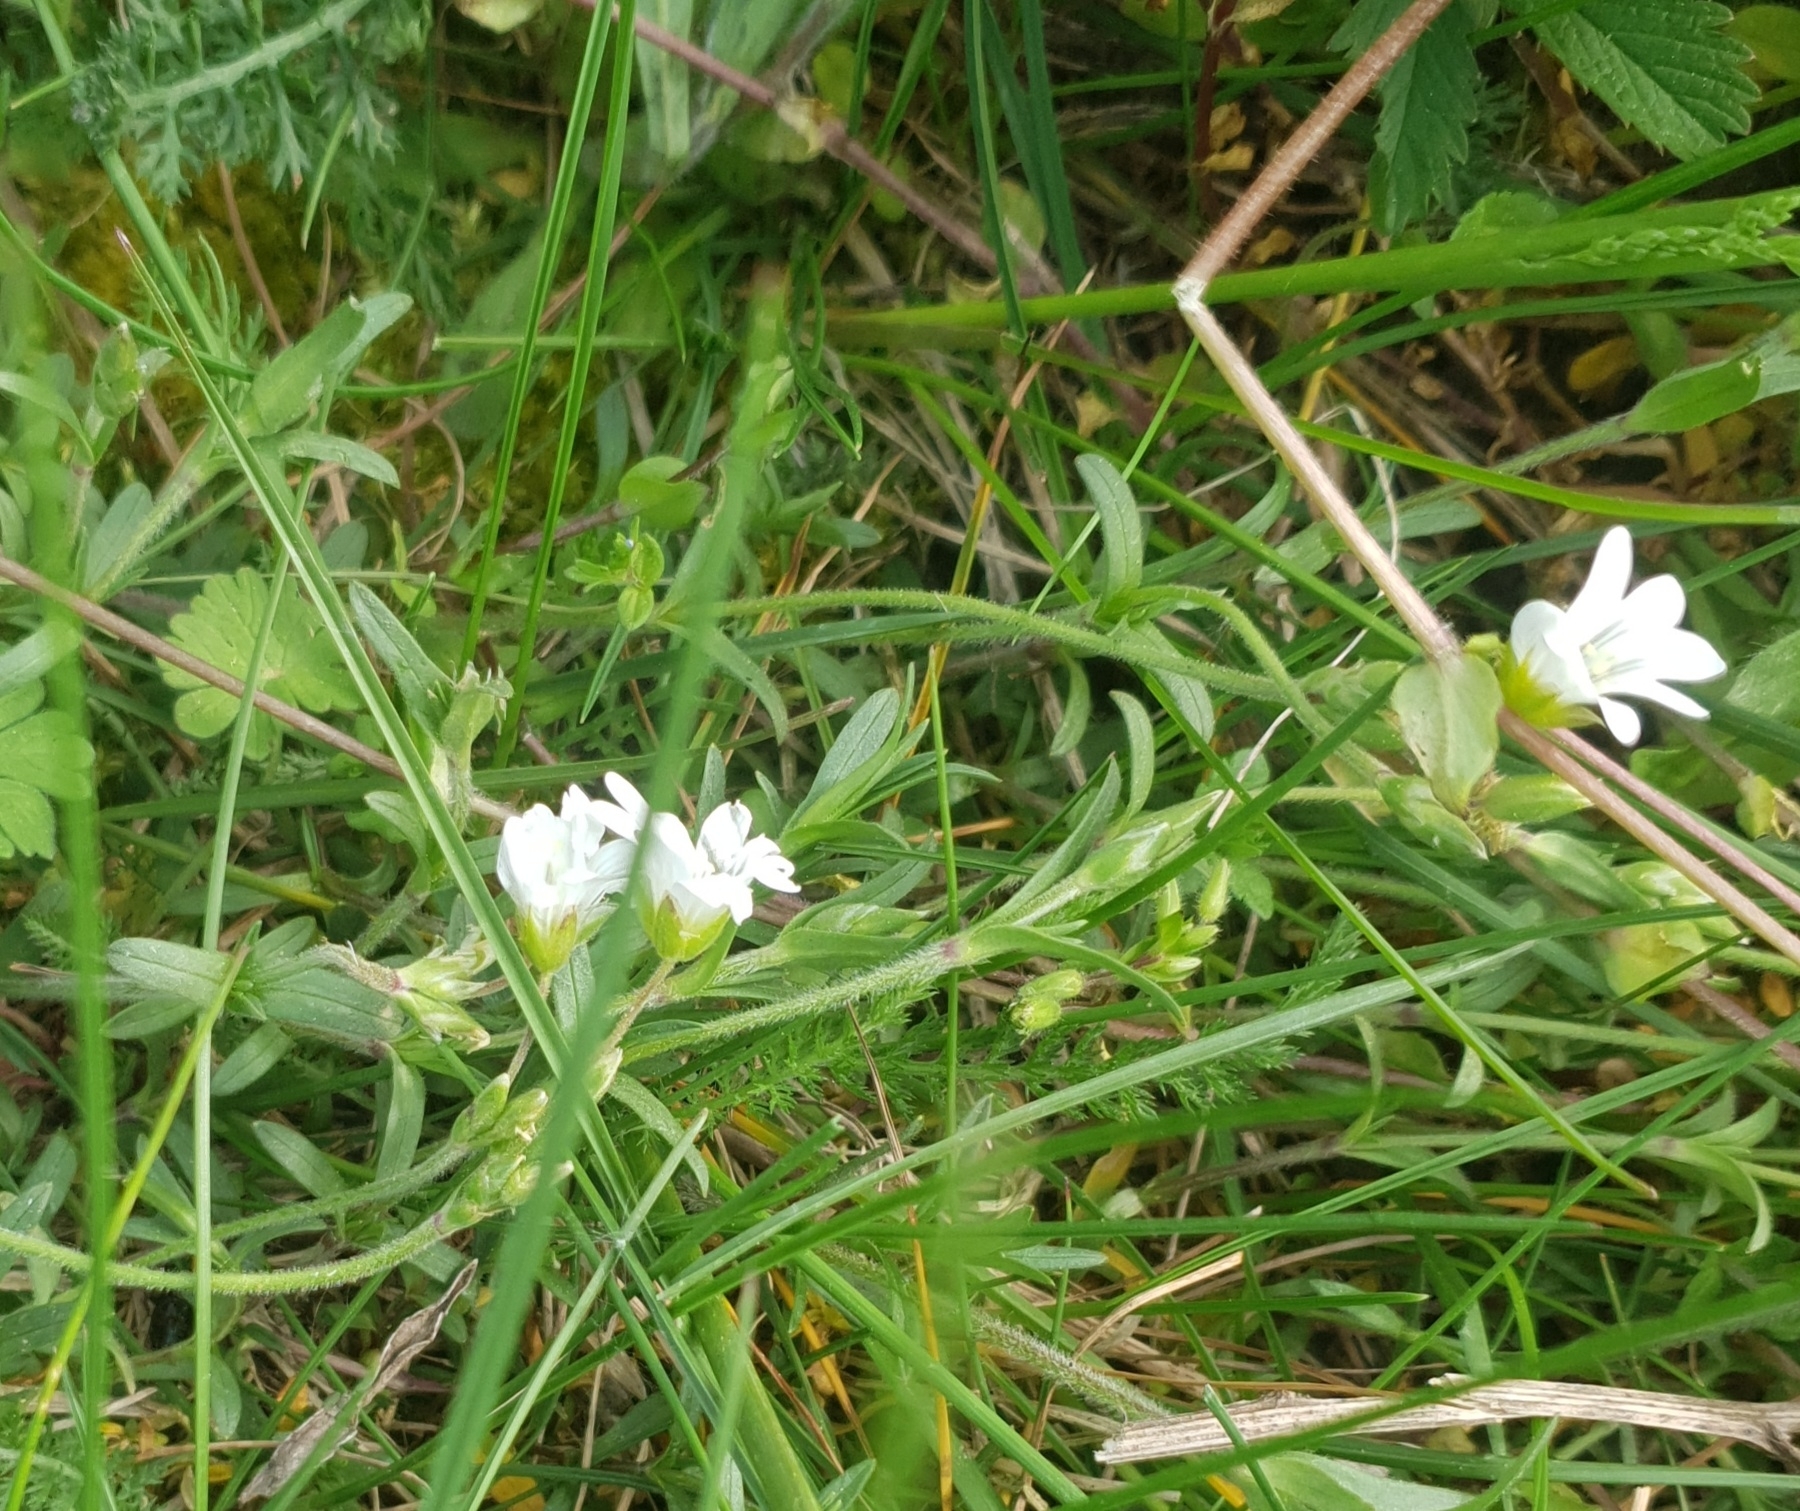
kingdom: Plantae
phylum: Tracheophyta
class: Magnoliopsida
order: Caryophyllales
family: Caryophyllaceae
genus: Cerastium
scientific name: Cerastium arvense
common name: Field mouse-ear
